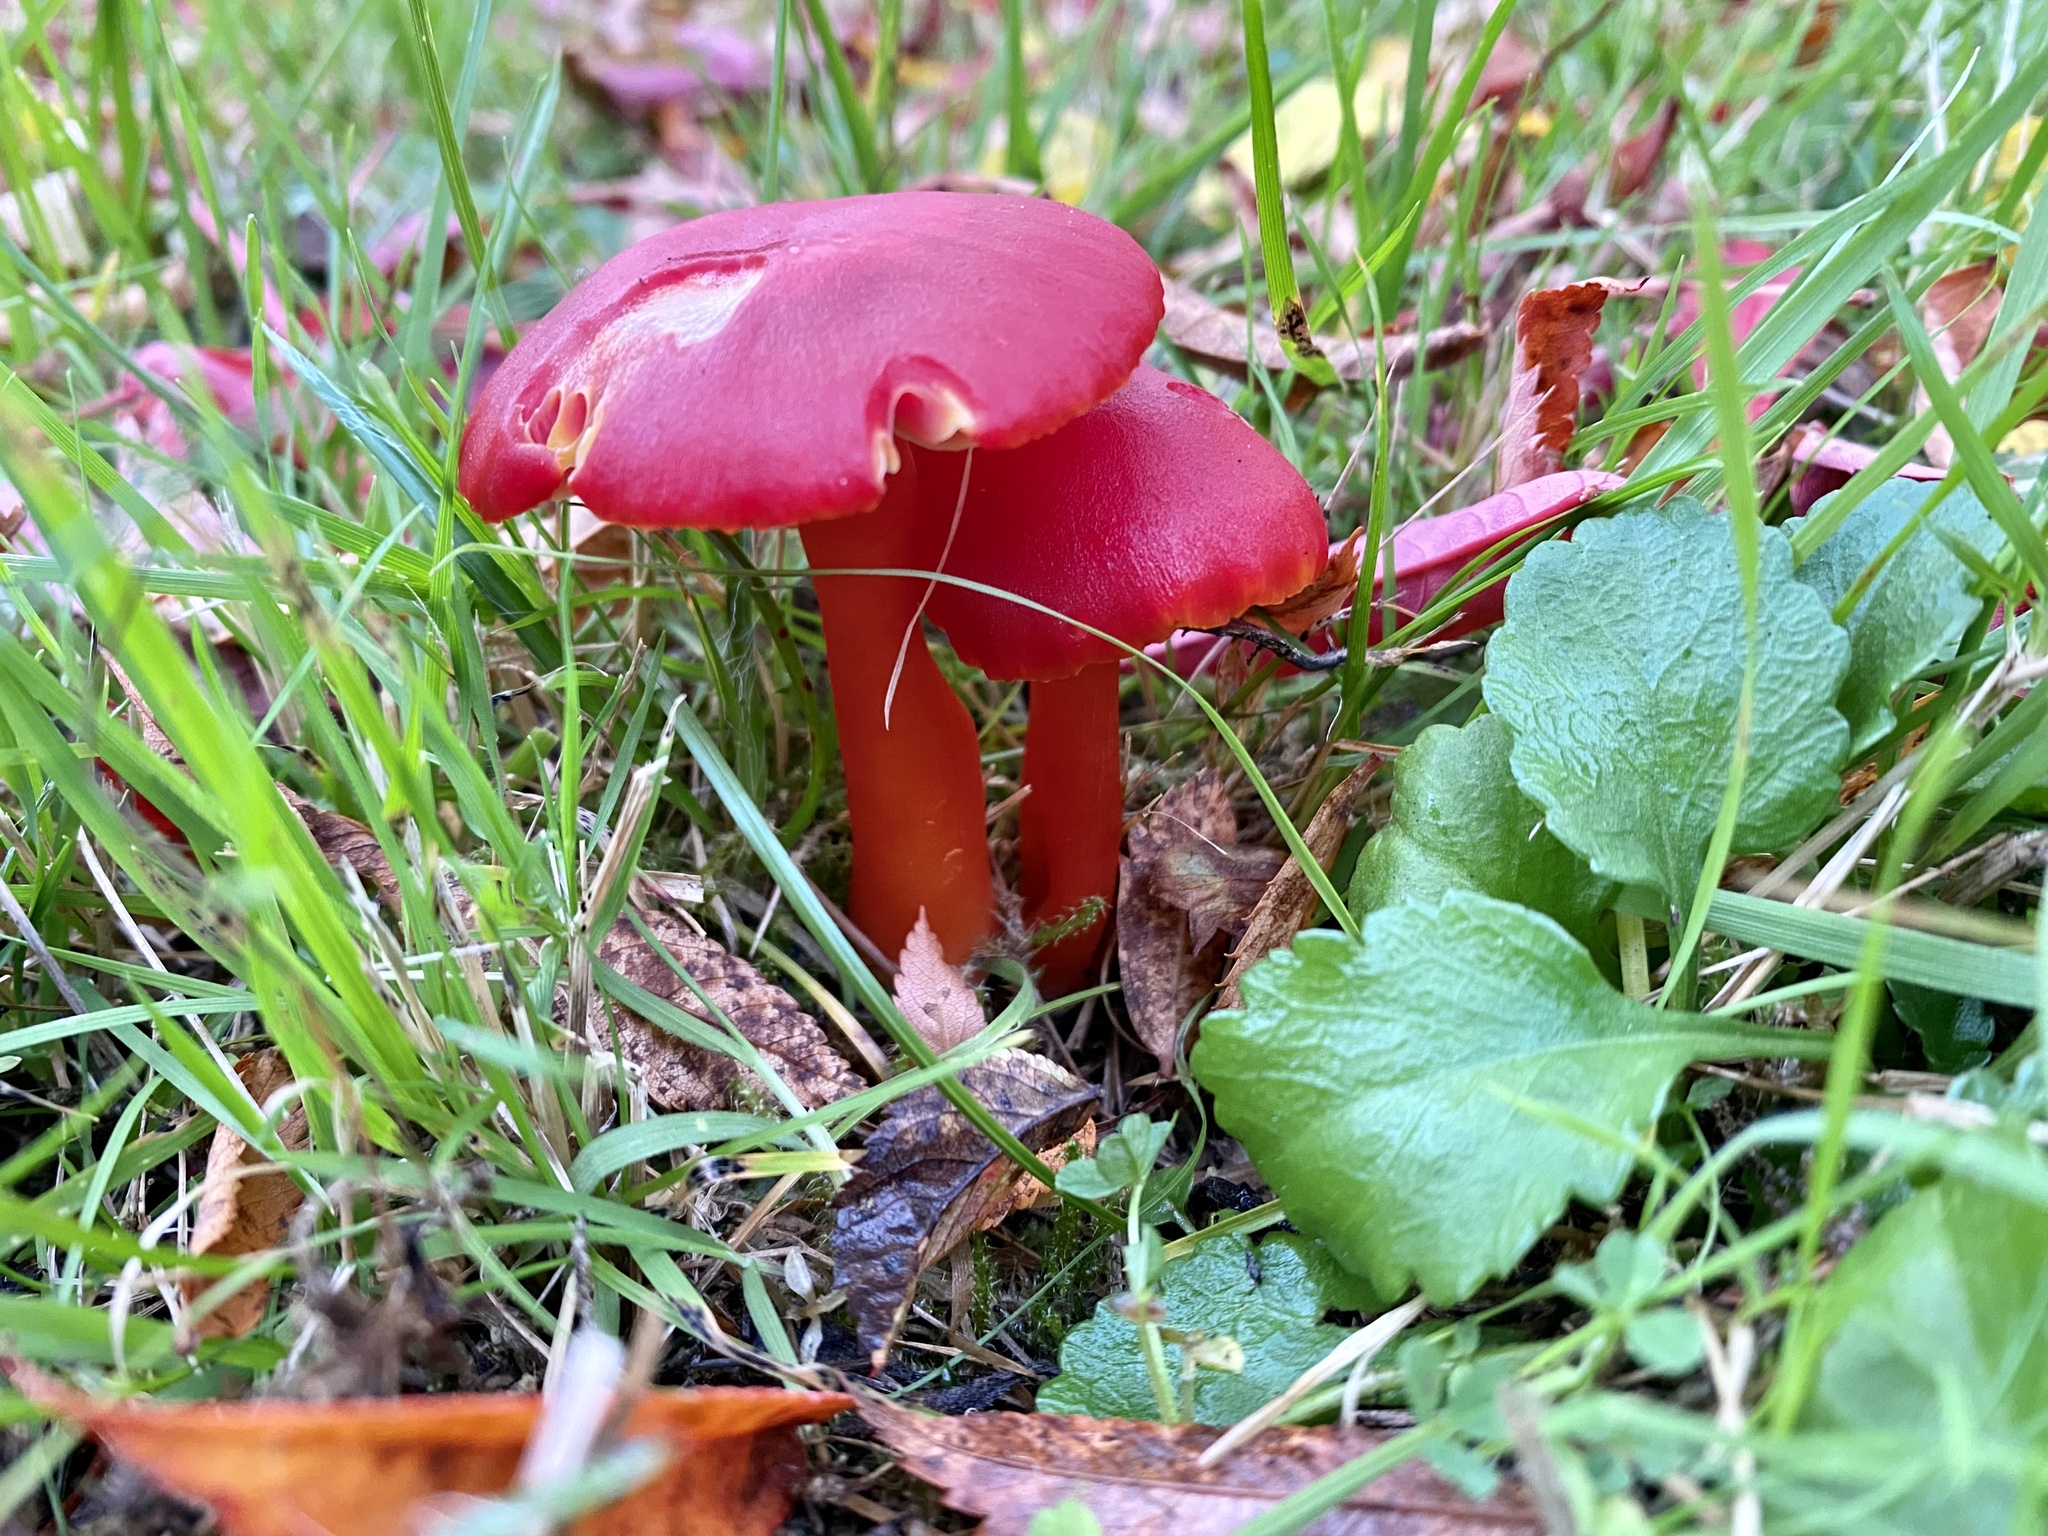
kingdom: Fungi
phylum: Basidiomycota
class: Agaricomycetes
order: Agaricales
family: Hygrophoraceae
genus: Hygrocybe
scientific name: Hygrocybe coccinea
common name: Scarlet hood
